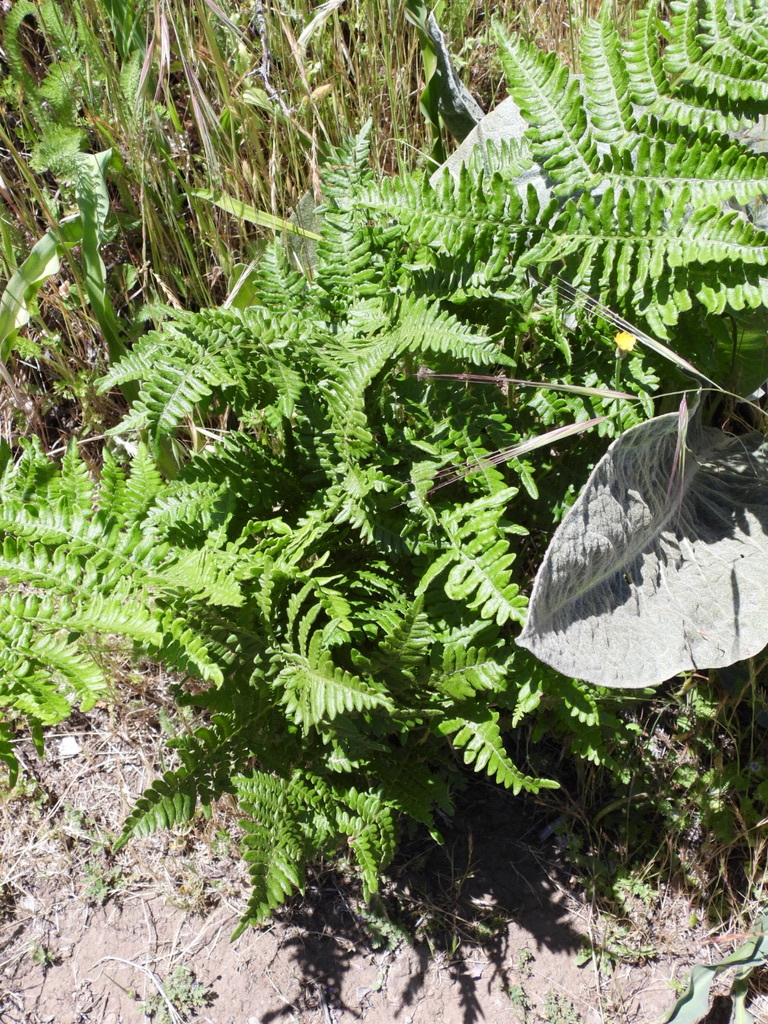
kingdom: Plantae
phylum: Tracheophyta
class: Polypodiopsida
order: Polypodiales
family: Dennstaedtiaceae
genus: Pteridium
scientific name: Pteridium aquilinum
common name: Bracken
